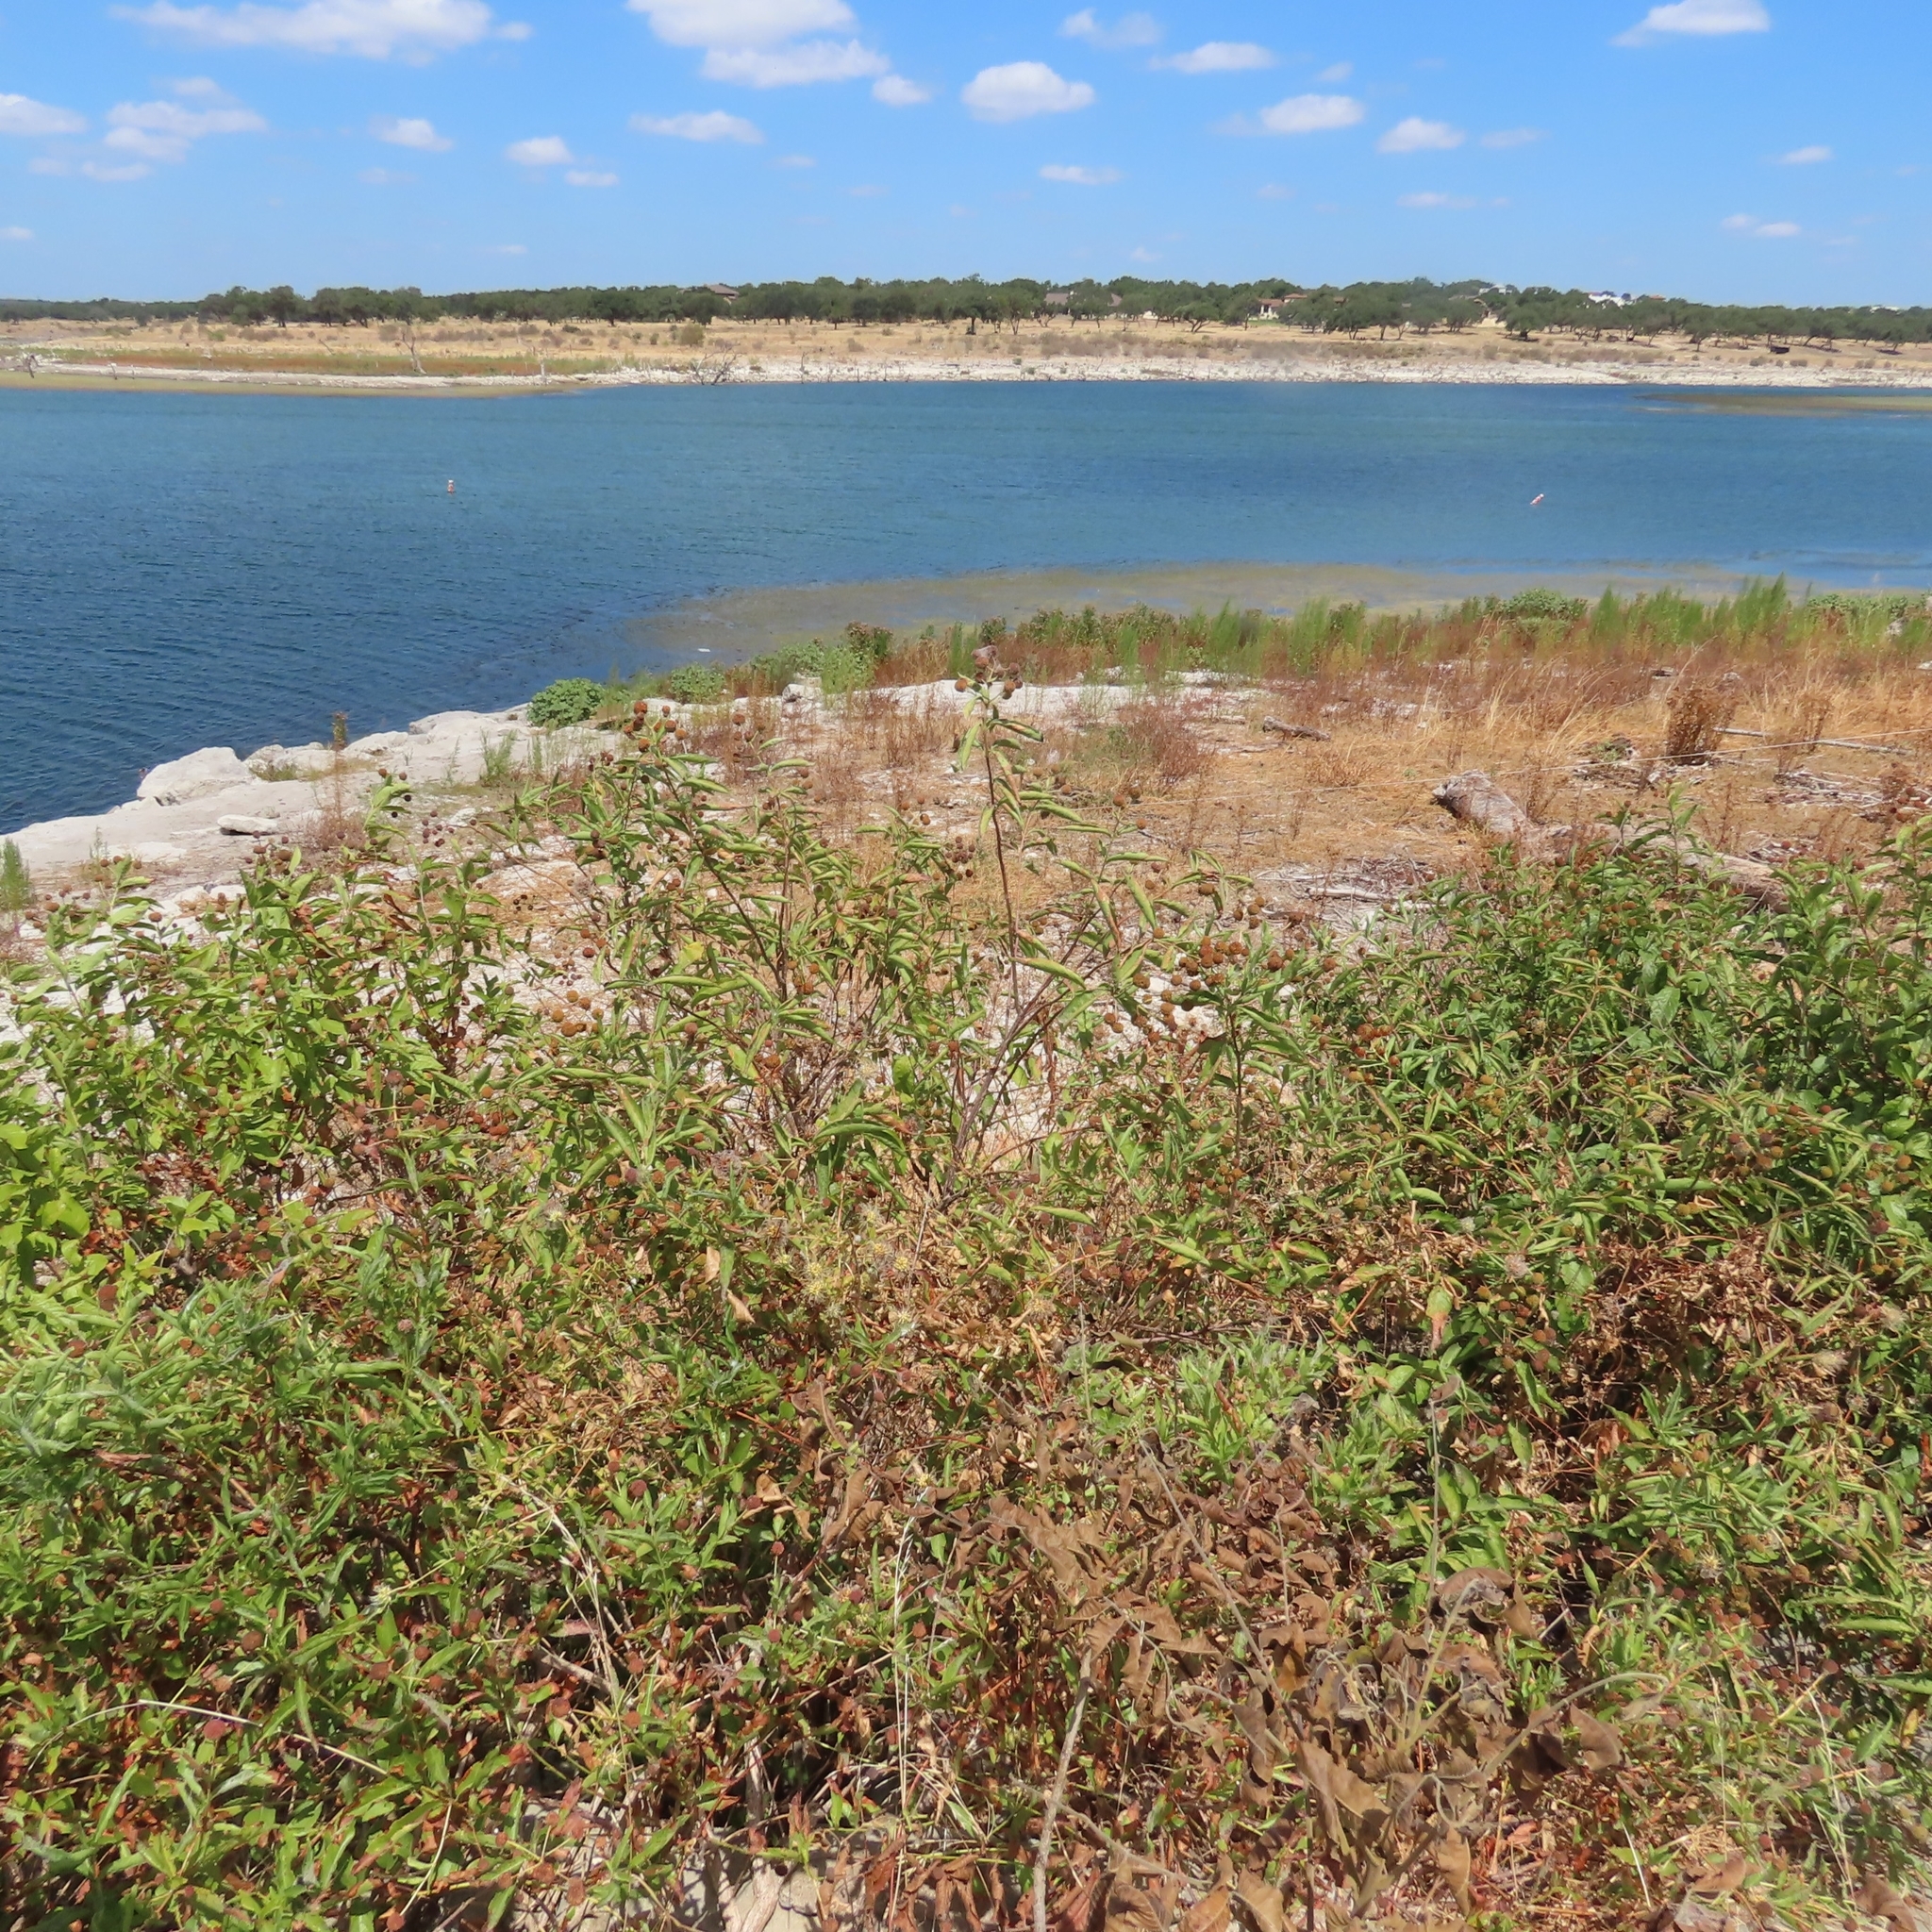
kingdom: Plantae
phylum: Tracheophyta
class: Magnoliopsida
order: Gentianales
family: Rubiaceae
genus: Cephalanthus
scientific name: Cephalanthus occidentalis
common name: Button-willow
